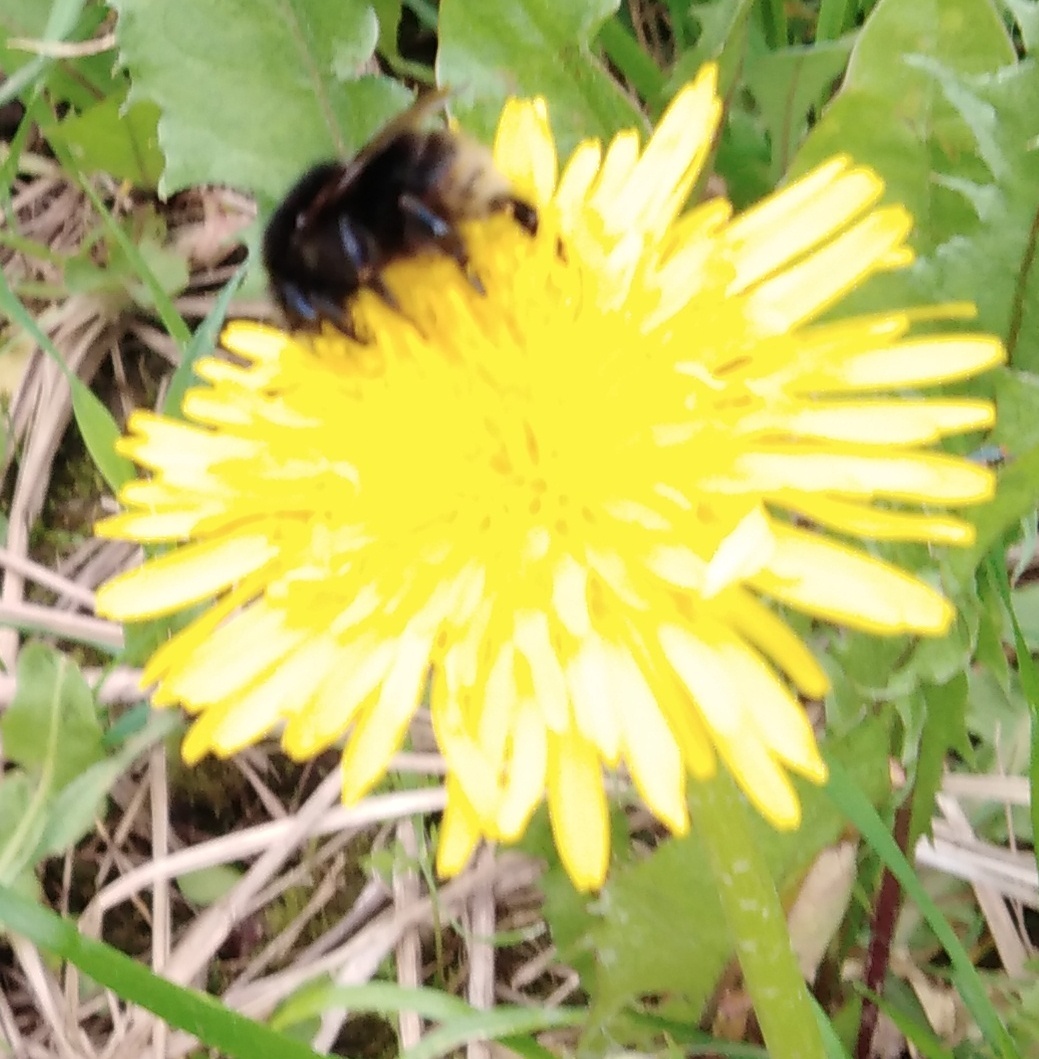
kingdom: Animalia
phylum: Arthropoda
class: Insecta
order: Hymenoptera
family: Apidae
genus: Bombus
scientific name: Bombus humilis
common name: Brown-banded carder-bee
